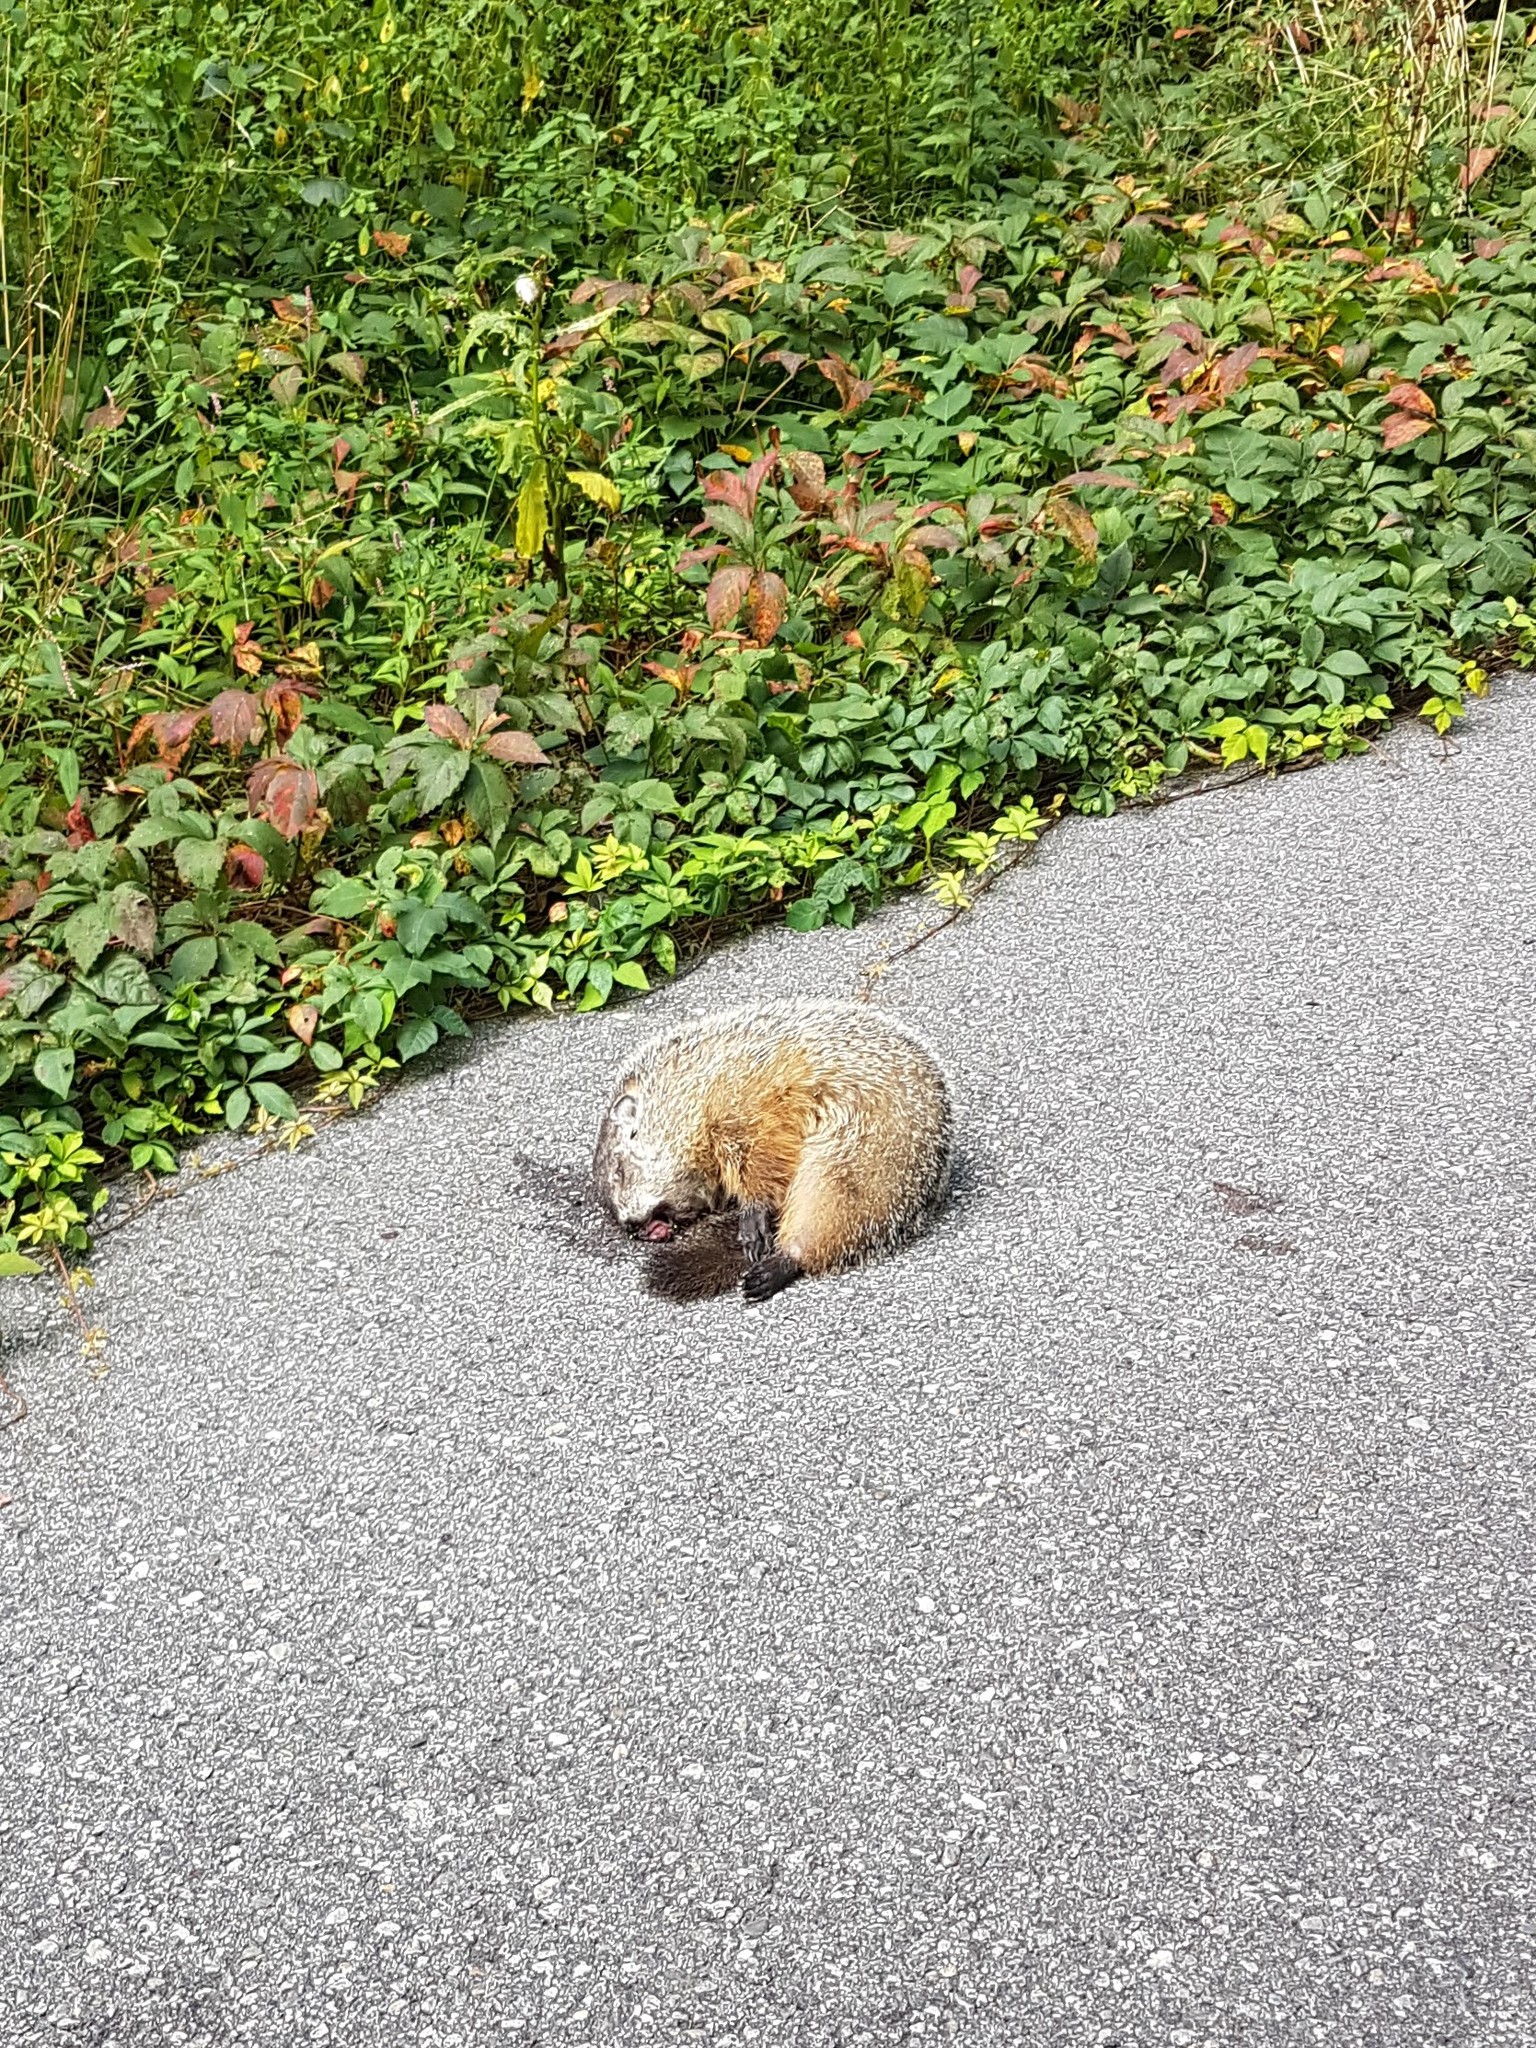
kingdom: Animalia
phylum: Chordata
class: Mammalia
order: Rodentia
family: Sciuridae
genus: Marmota
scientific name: Marmota monax
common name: Groundhog
